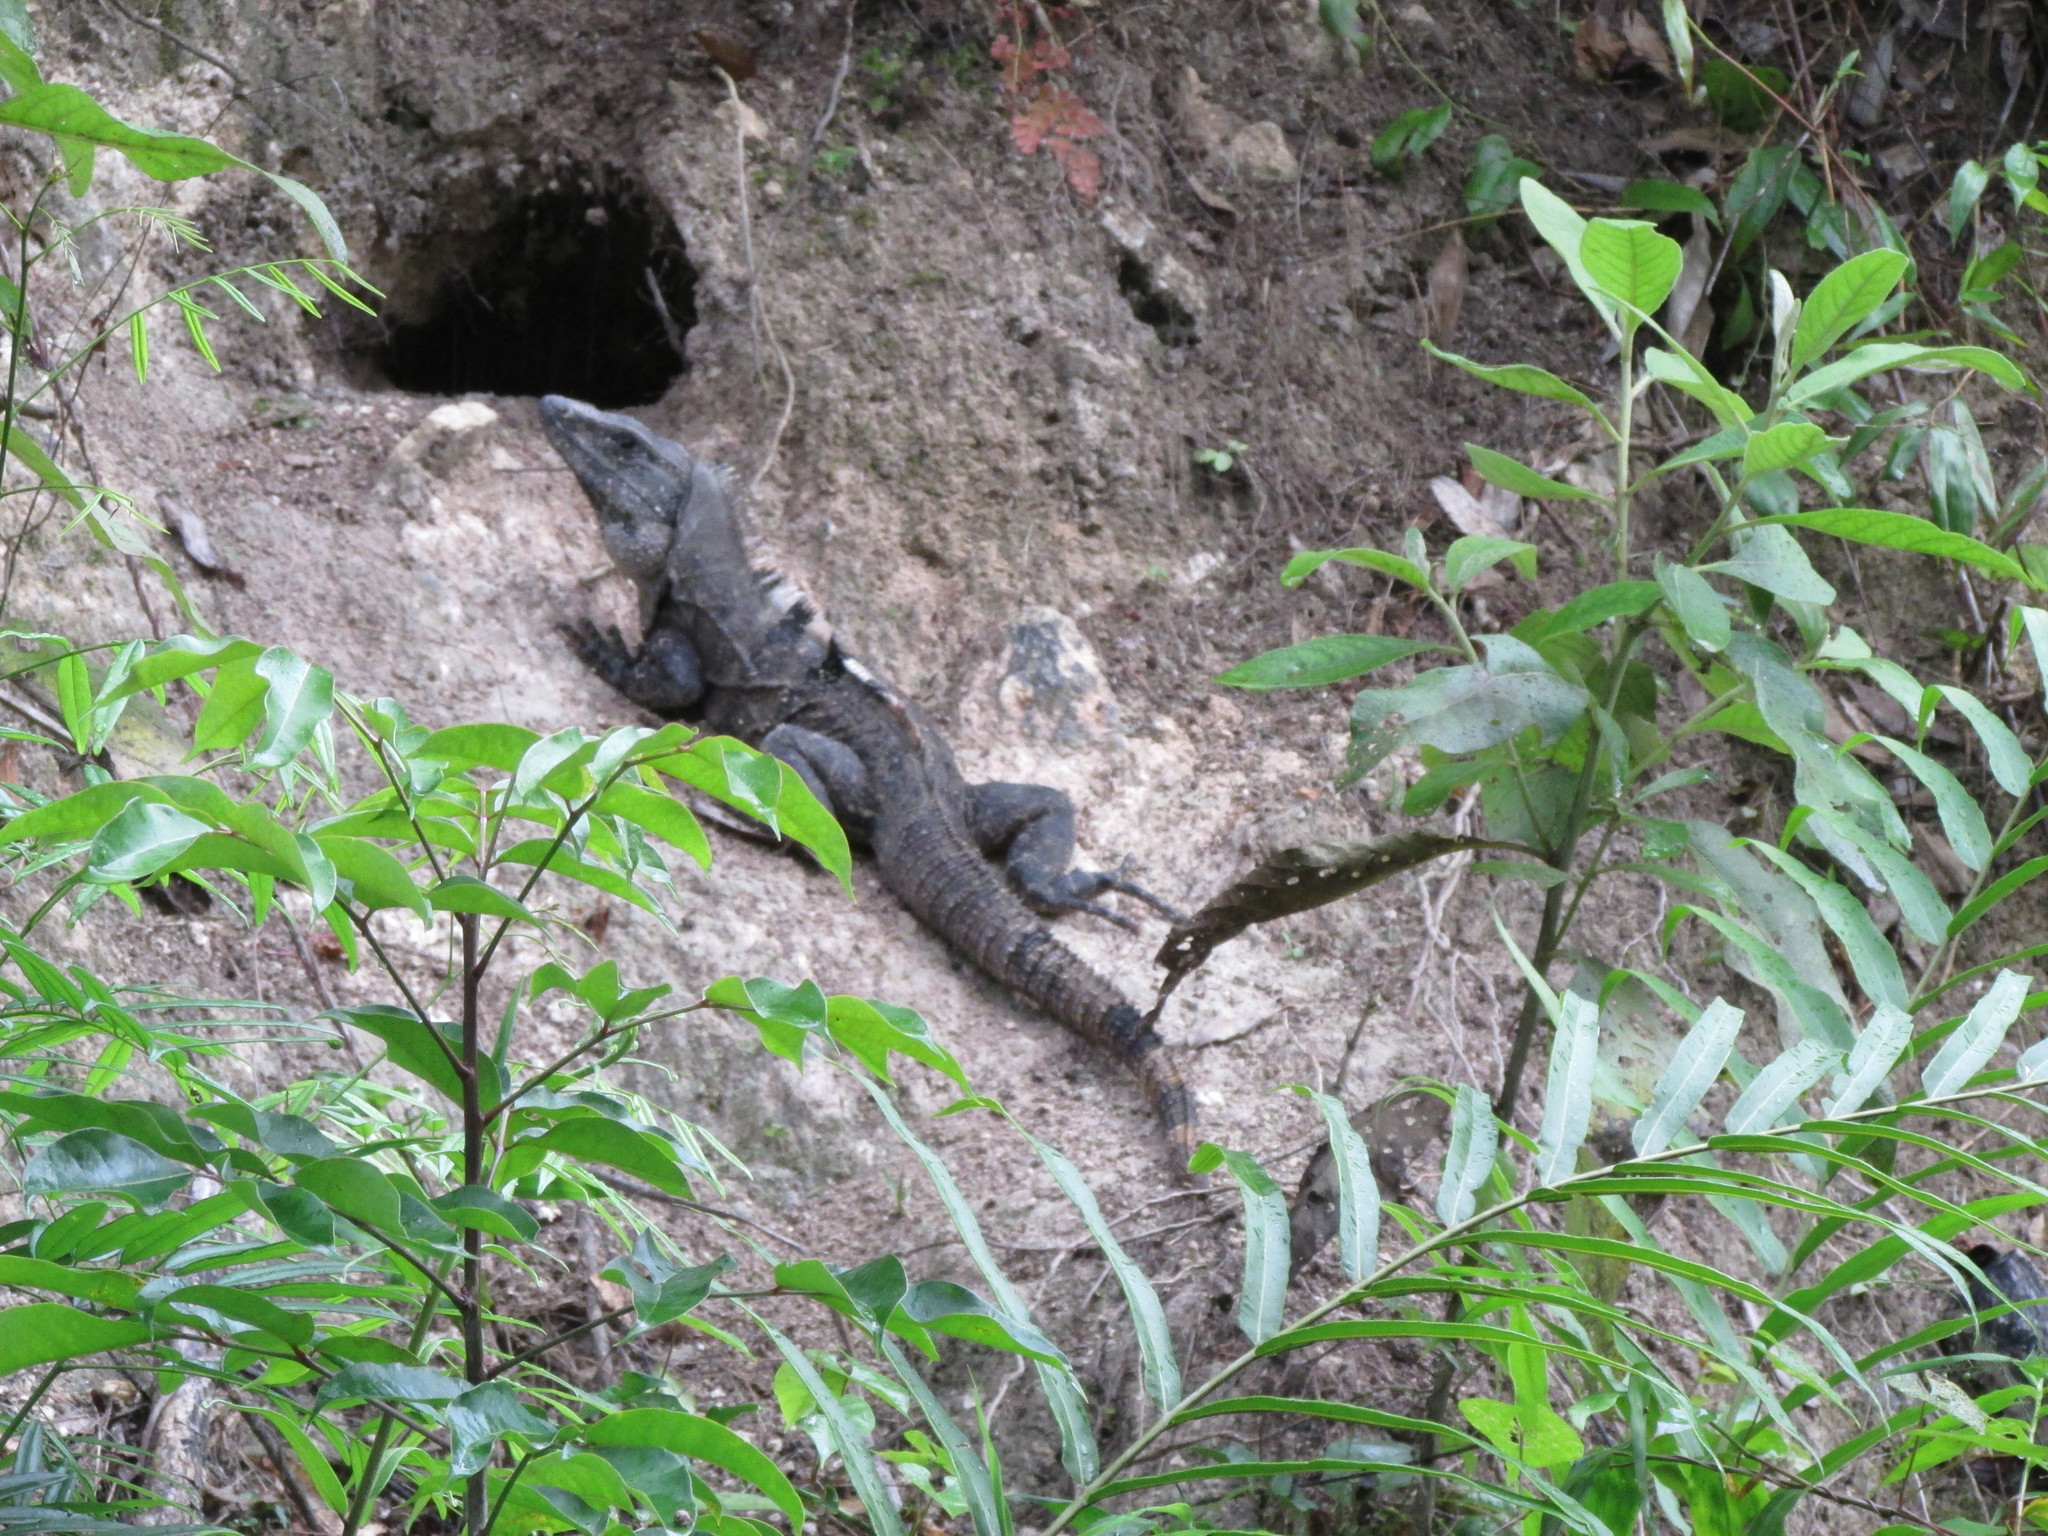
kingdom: Animalia
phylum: Chordata
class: Squamata
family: Iguanidae
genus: Ctenosaura
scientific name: Ctenosaura similis
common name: Black spiny-tailed iguana
